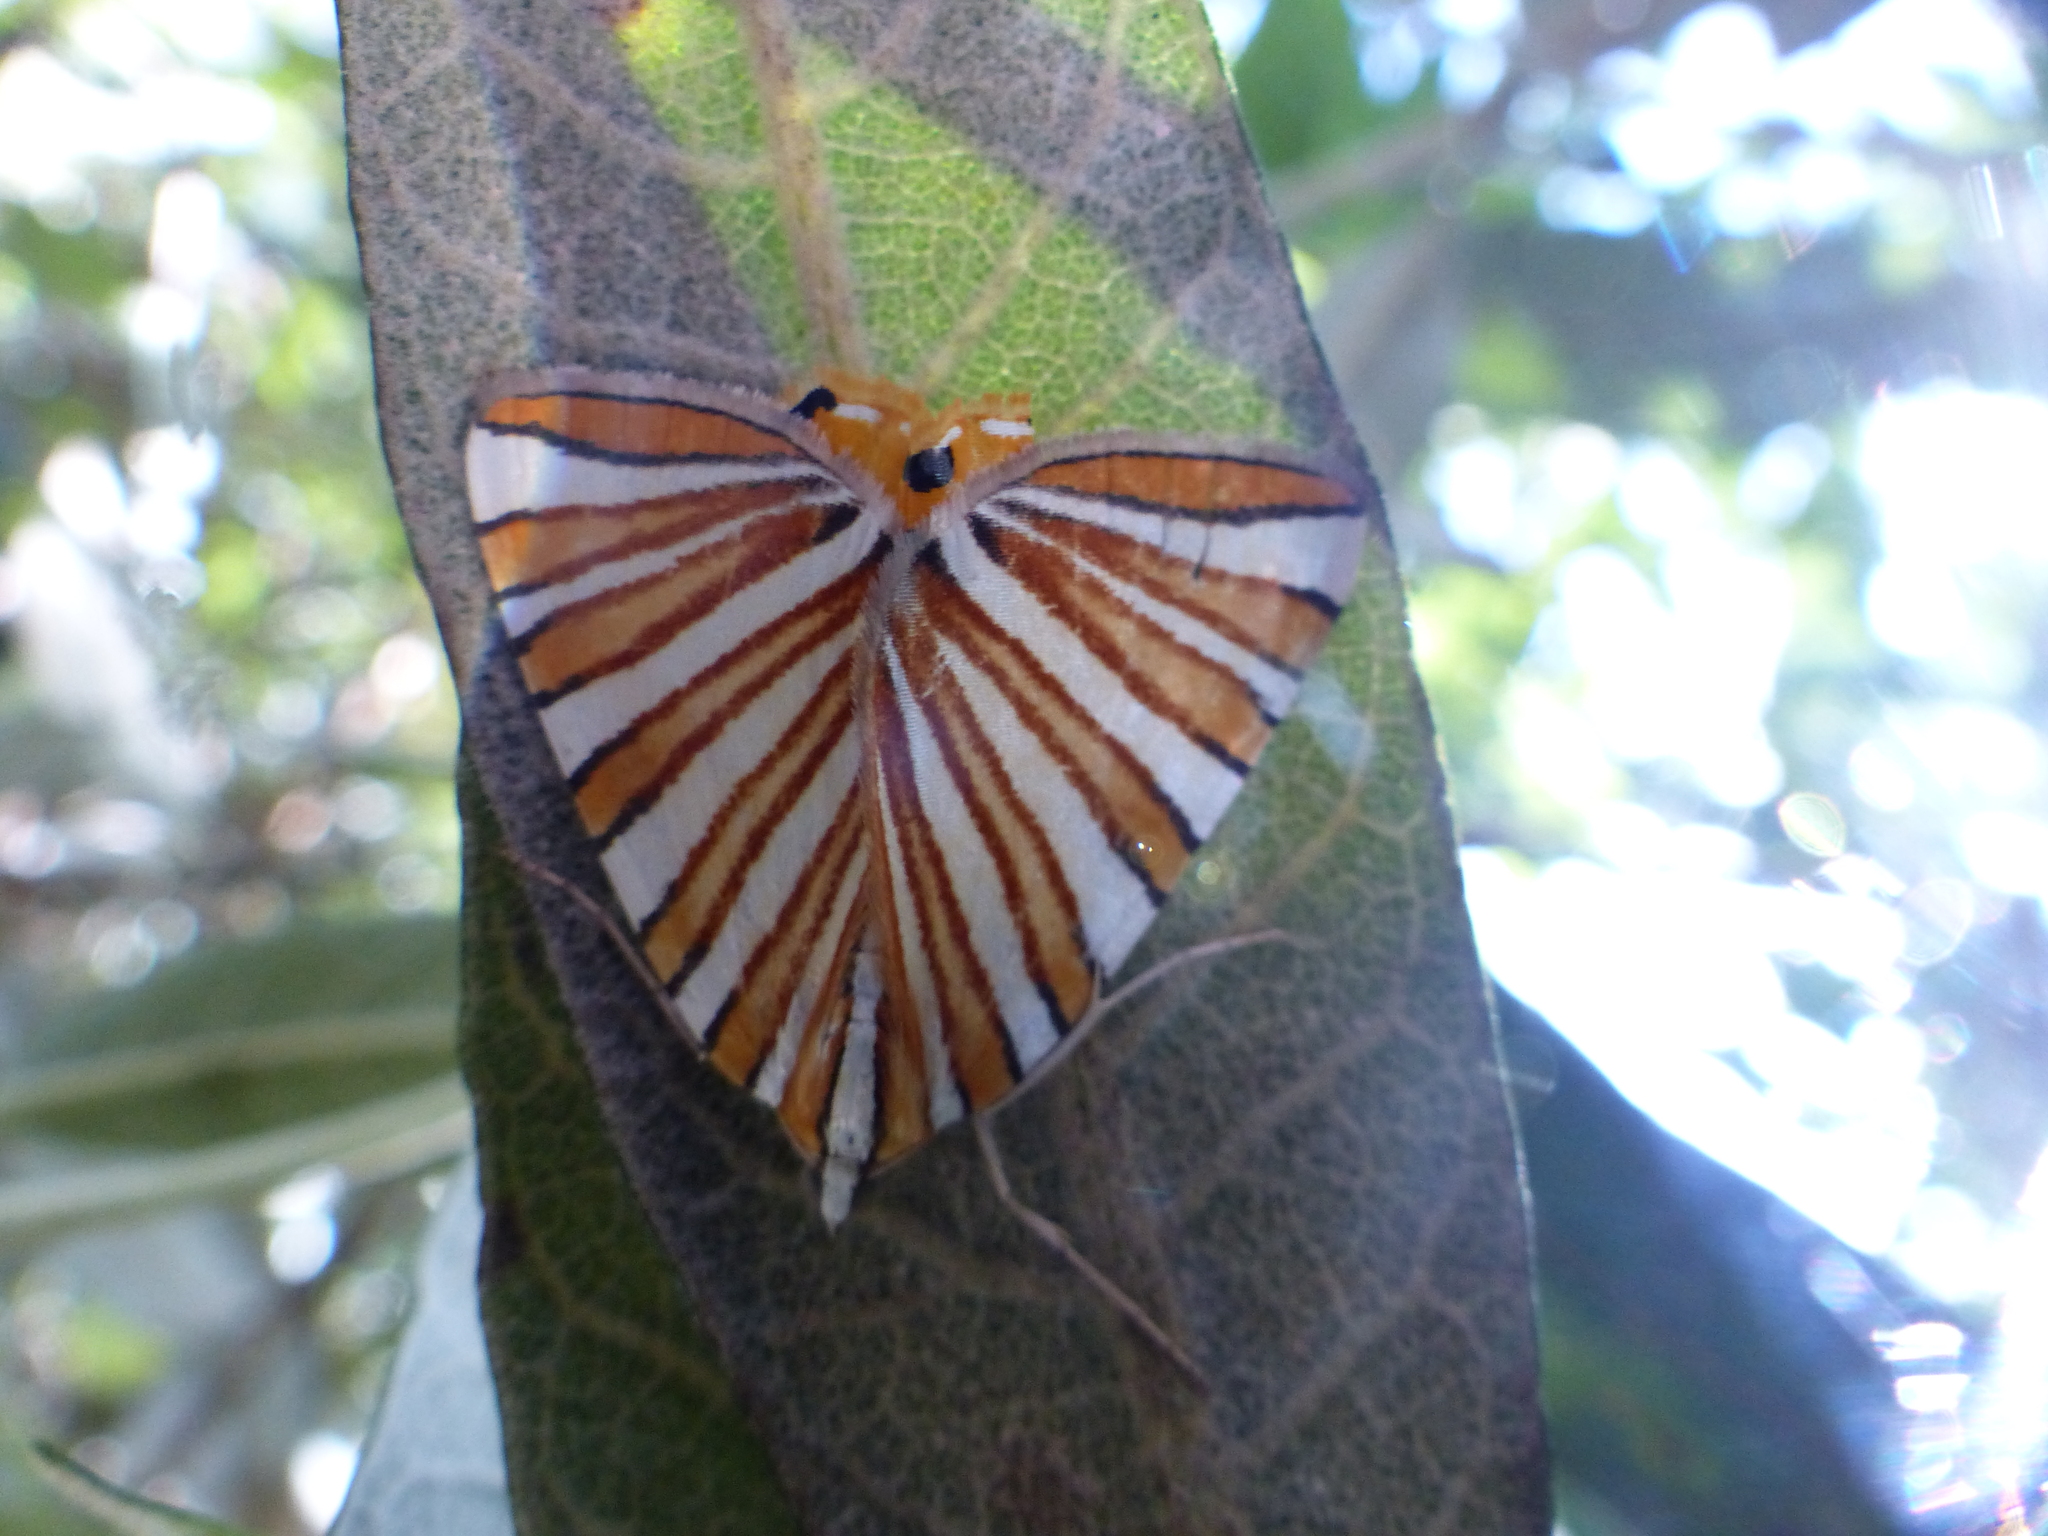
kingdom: Animalia
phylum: Arthropoda
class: Insecta
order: Lepidoptera
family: Geometridae
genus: Pityeja
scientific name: Pityeja histrionaria
